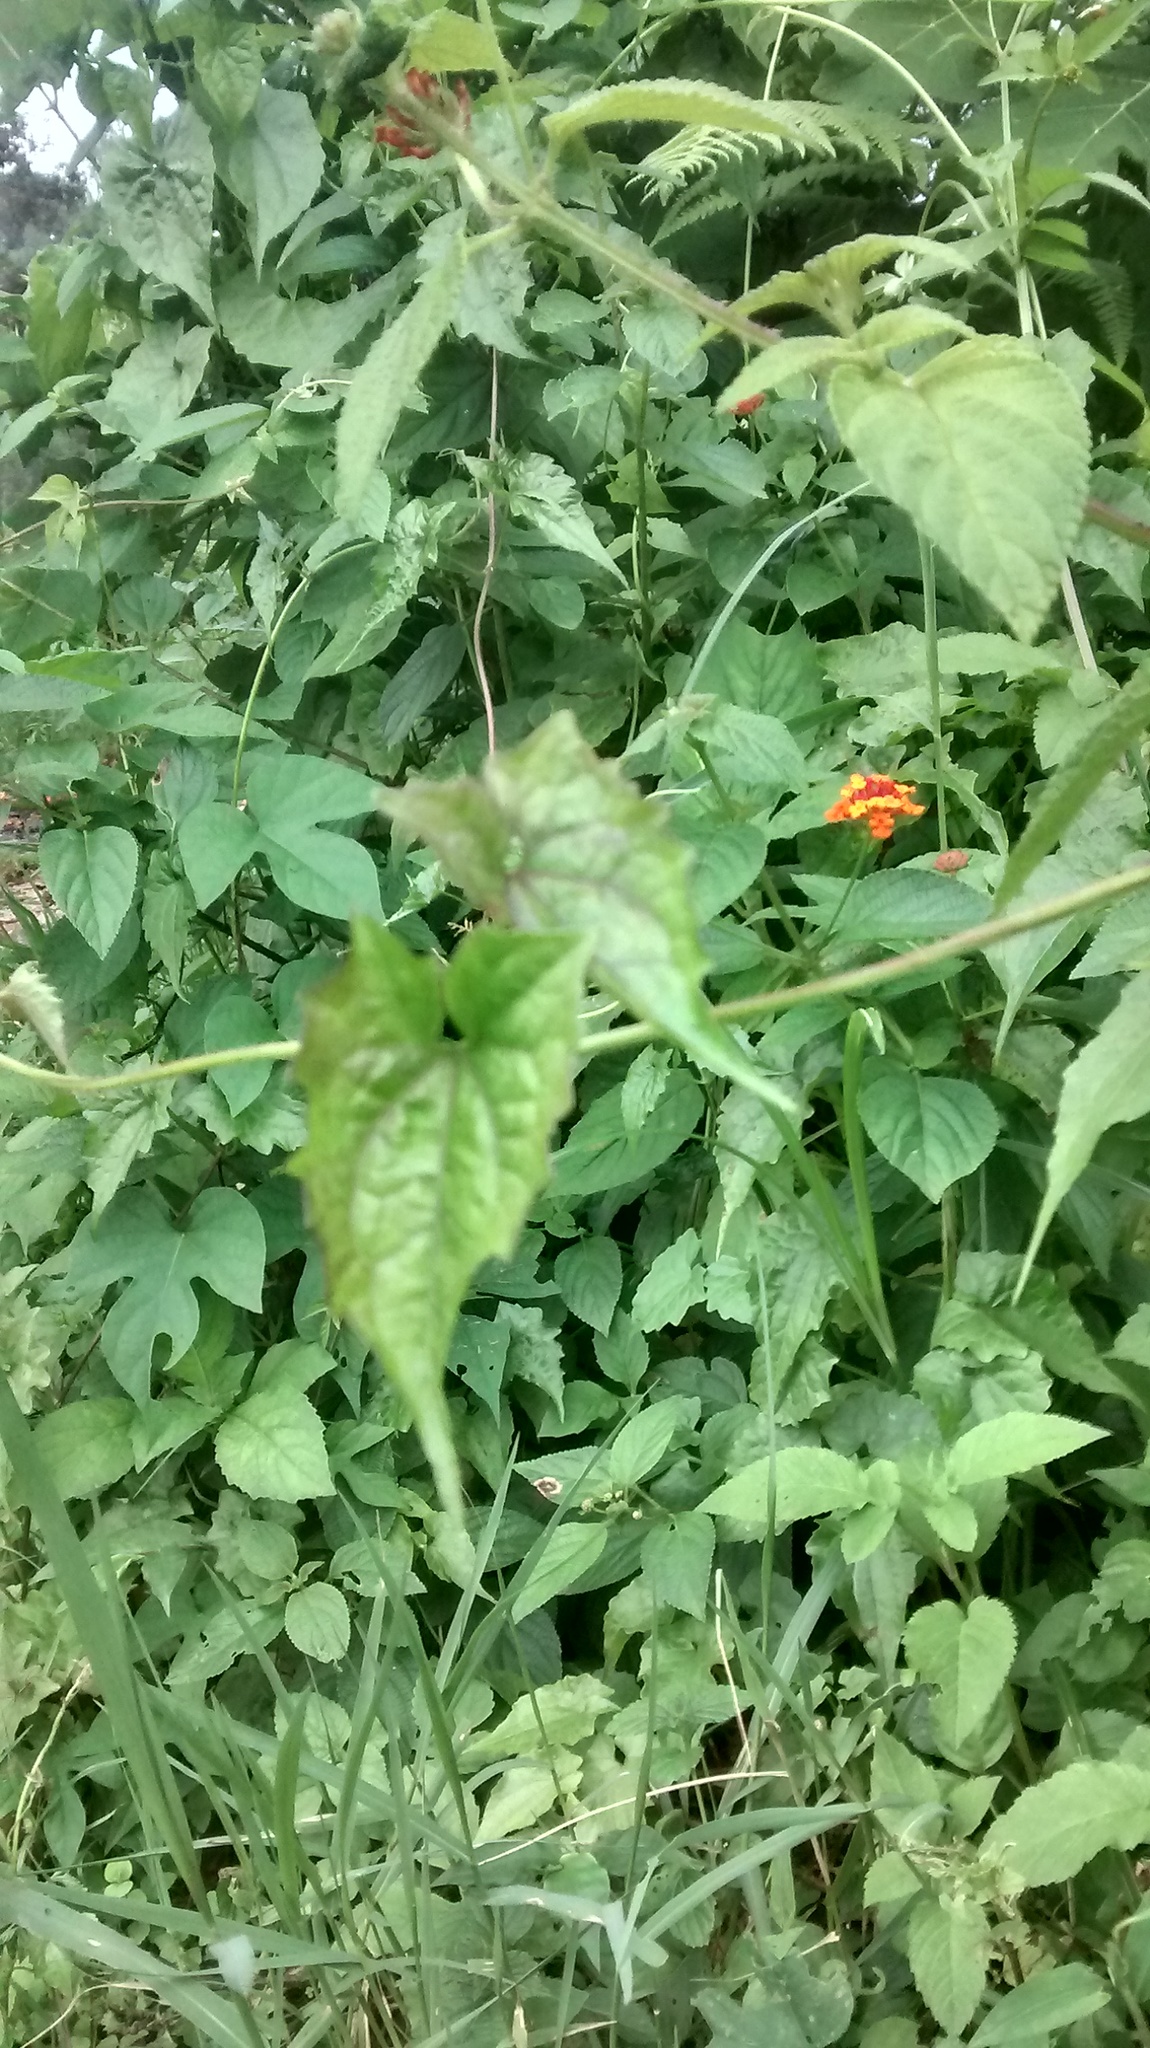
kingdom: Plantae
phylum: Tracheophyta
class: Magnoliopsida
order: Asterales
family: Asteraceae
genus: Mikania
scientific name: Mikania micrantha
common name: Mile-a-minute
